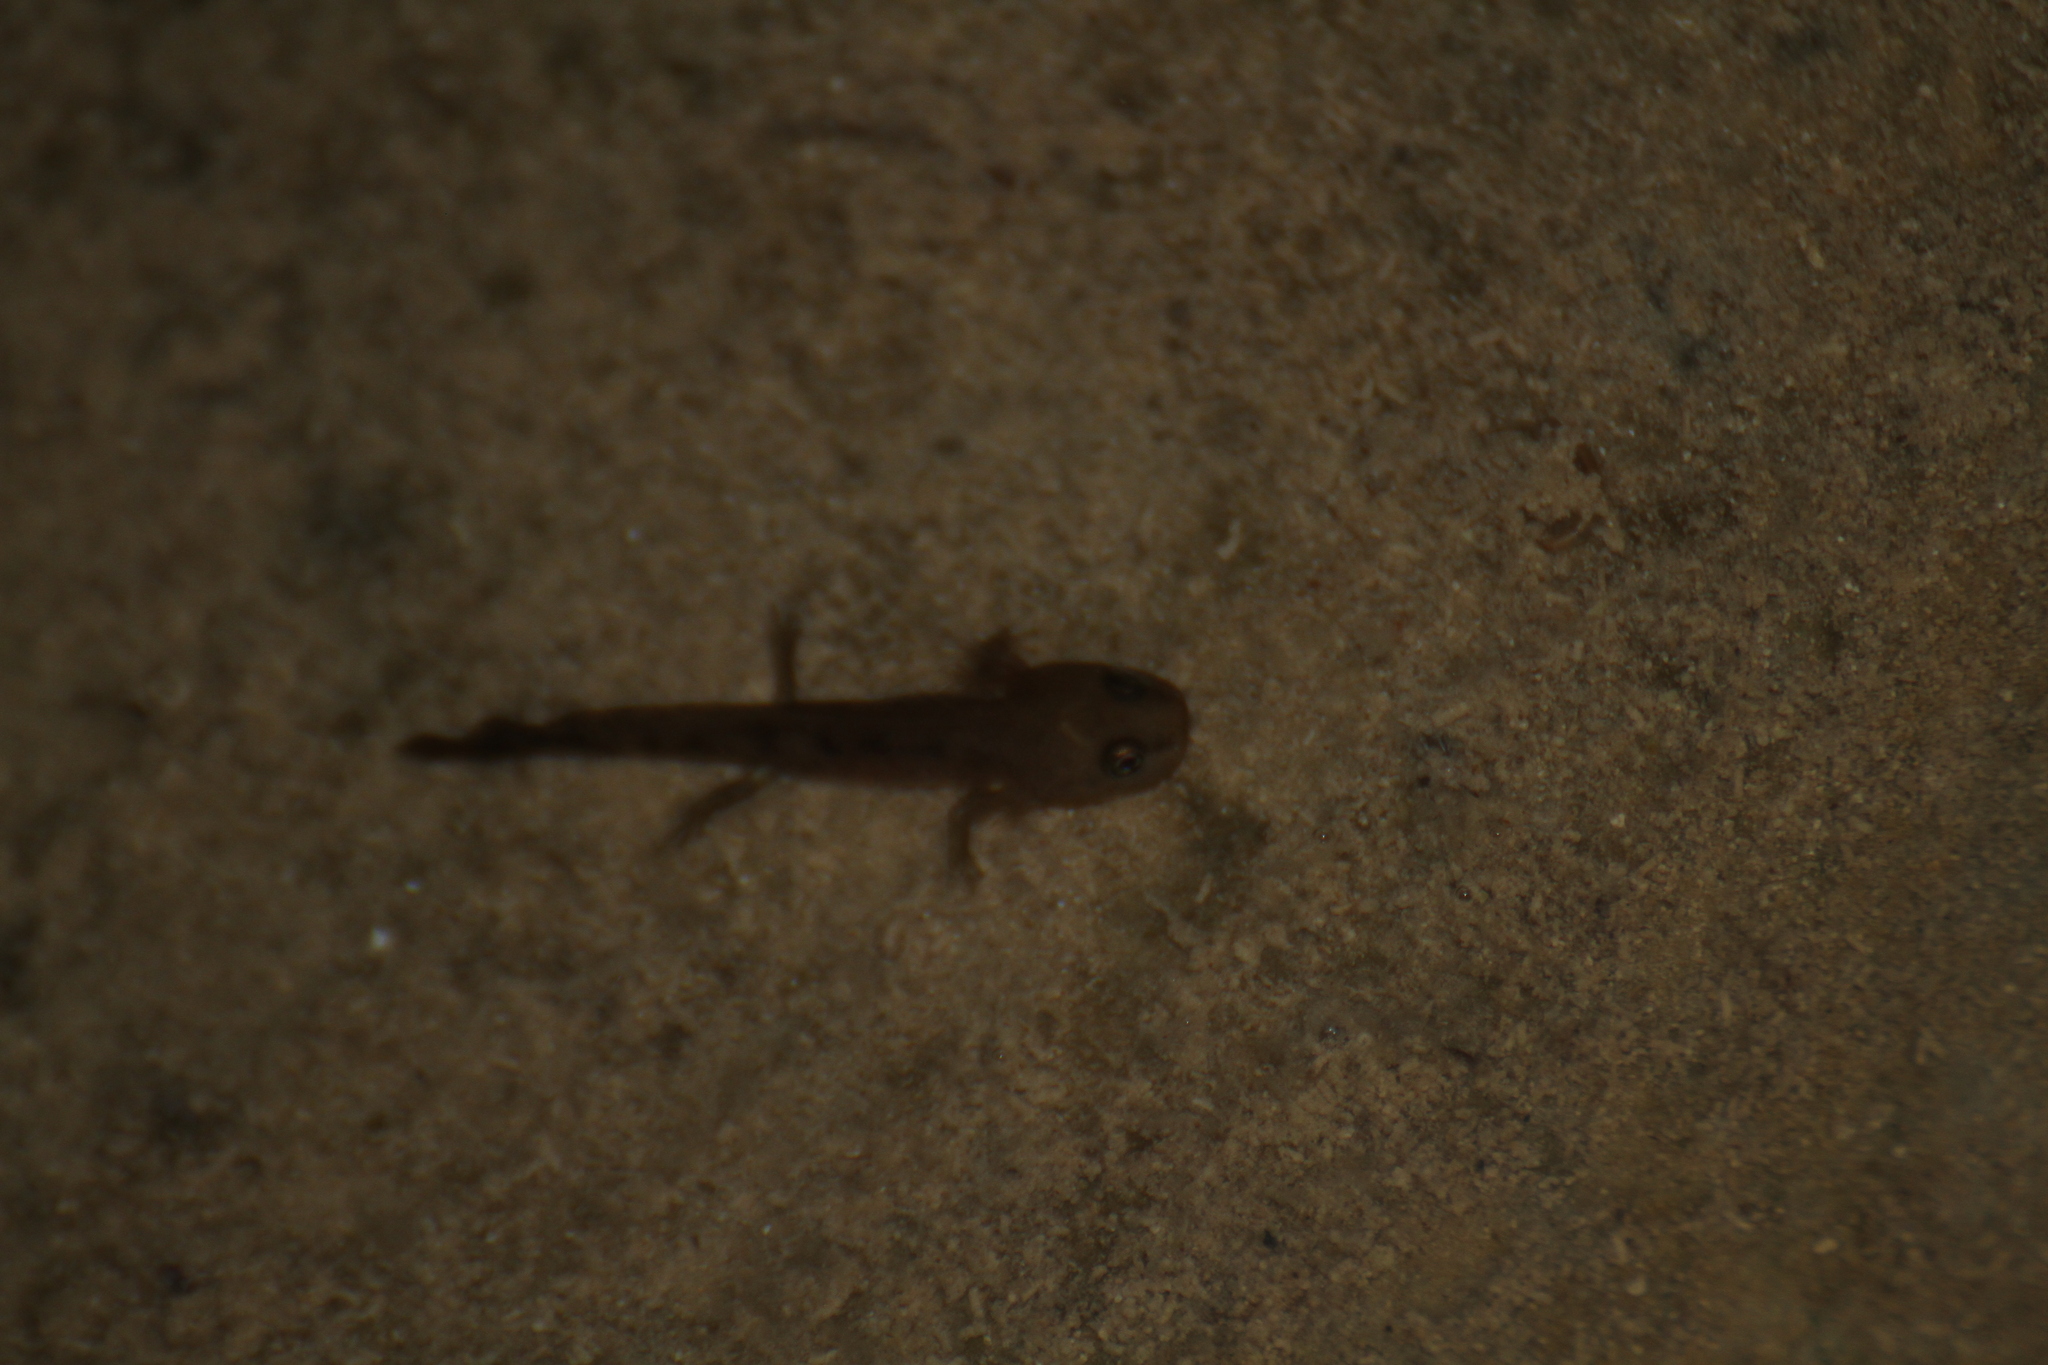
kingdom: Animalia
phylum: Chordata
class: Amphibia
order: Caudata
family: Salamandridae
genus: Salamandra
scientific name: Salamandra salamandra
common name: Fire salamander
